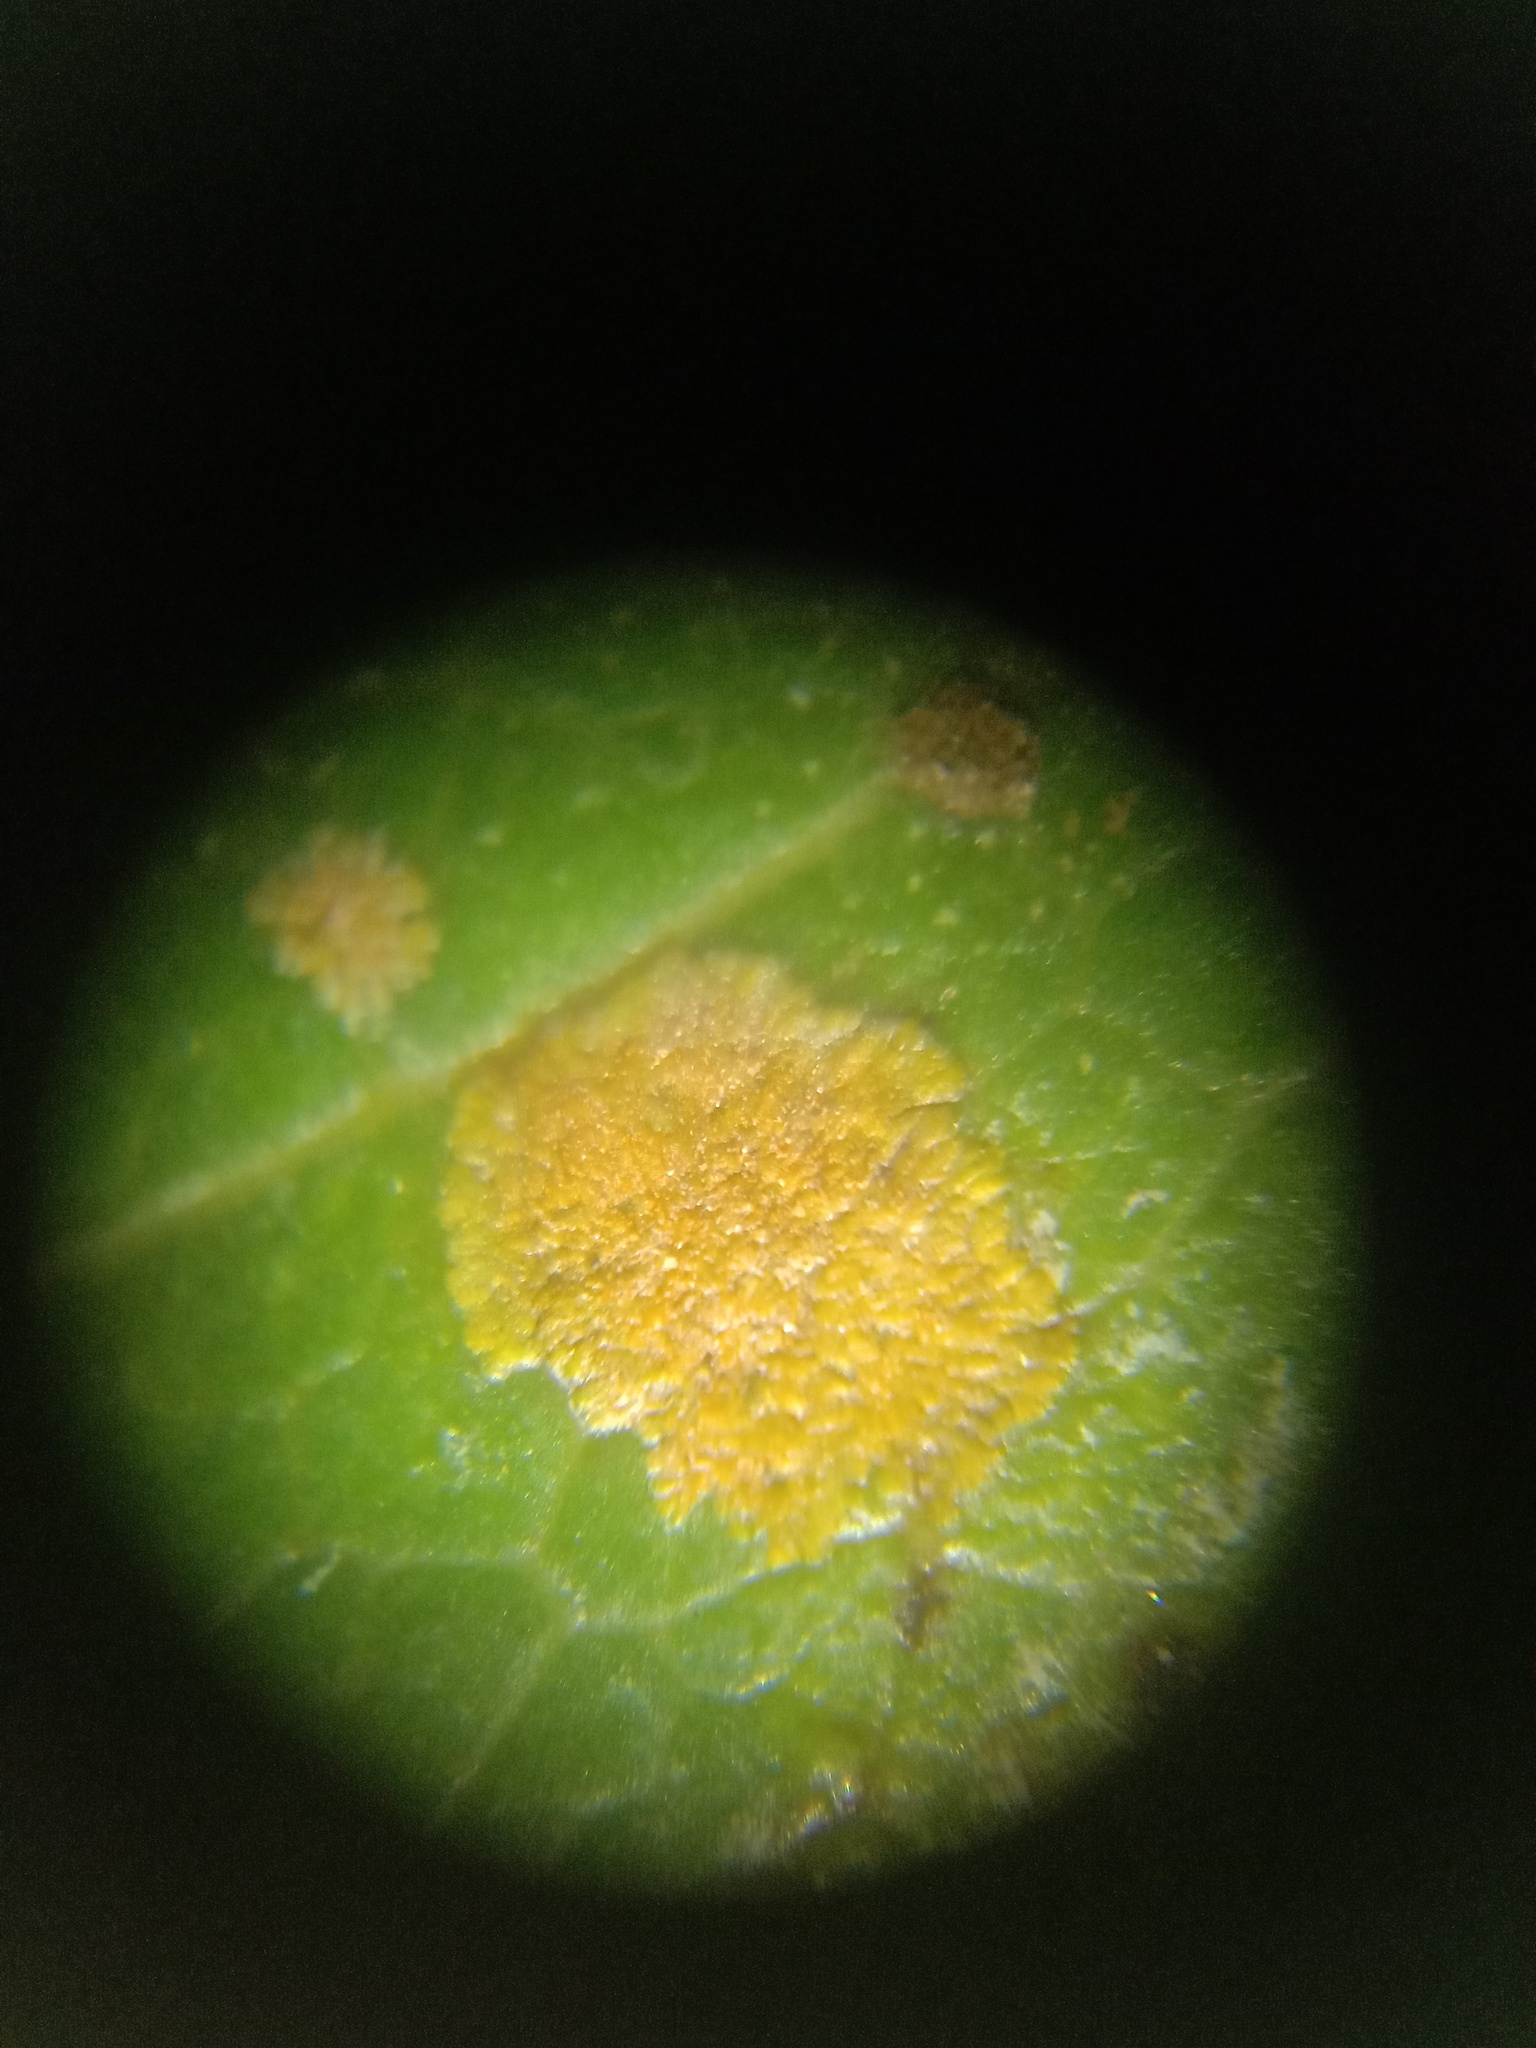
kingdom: Plantae
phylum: Chlorophyta
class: Ulvophyceae
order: Trentepohliales
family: Trentepohliaceae
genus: Cephaleuros
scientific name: Cephaleuros virescens
